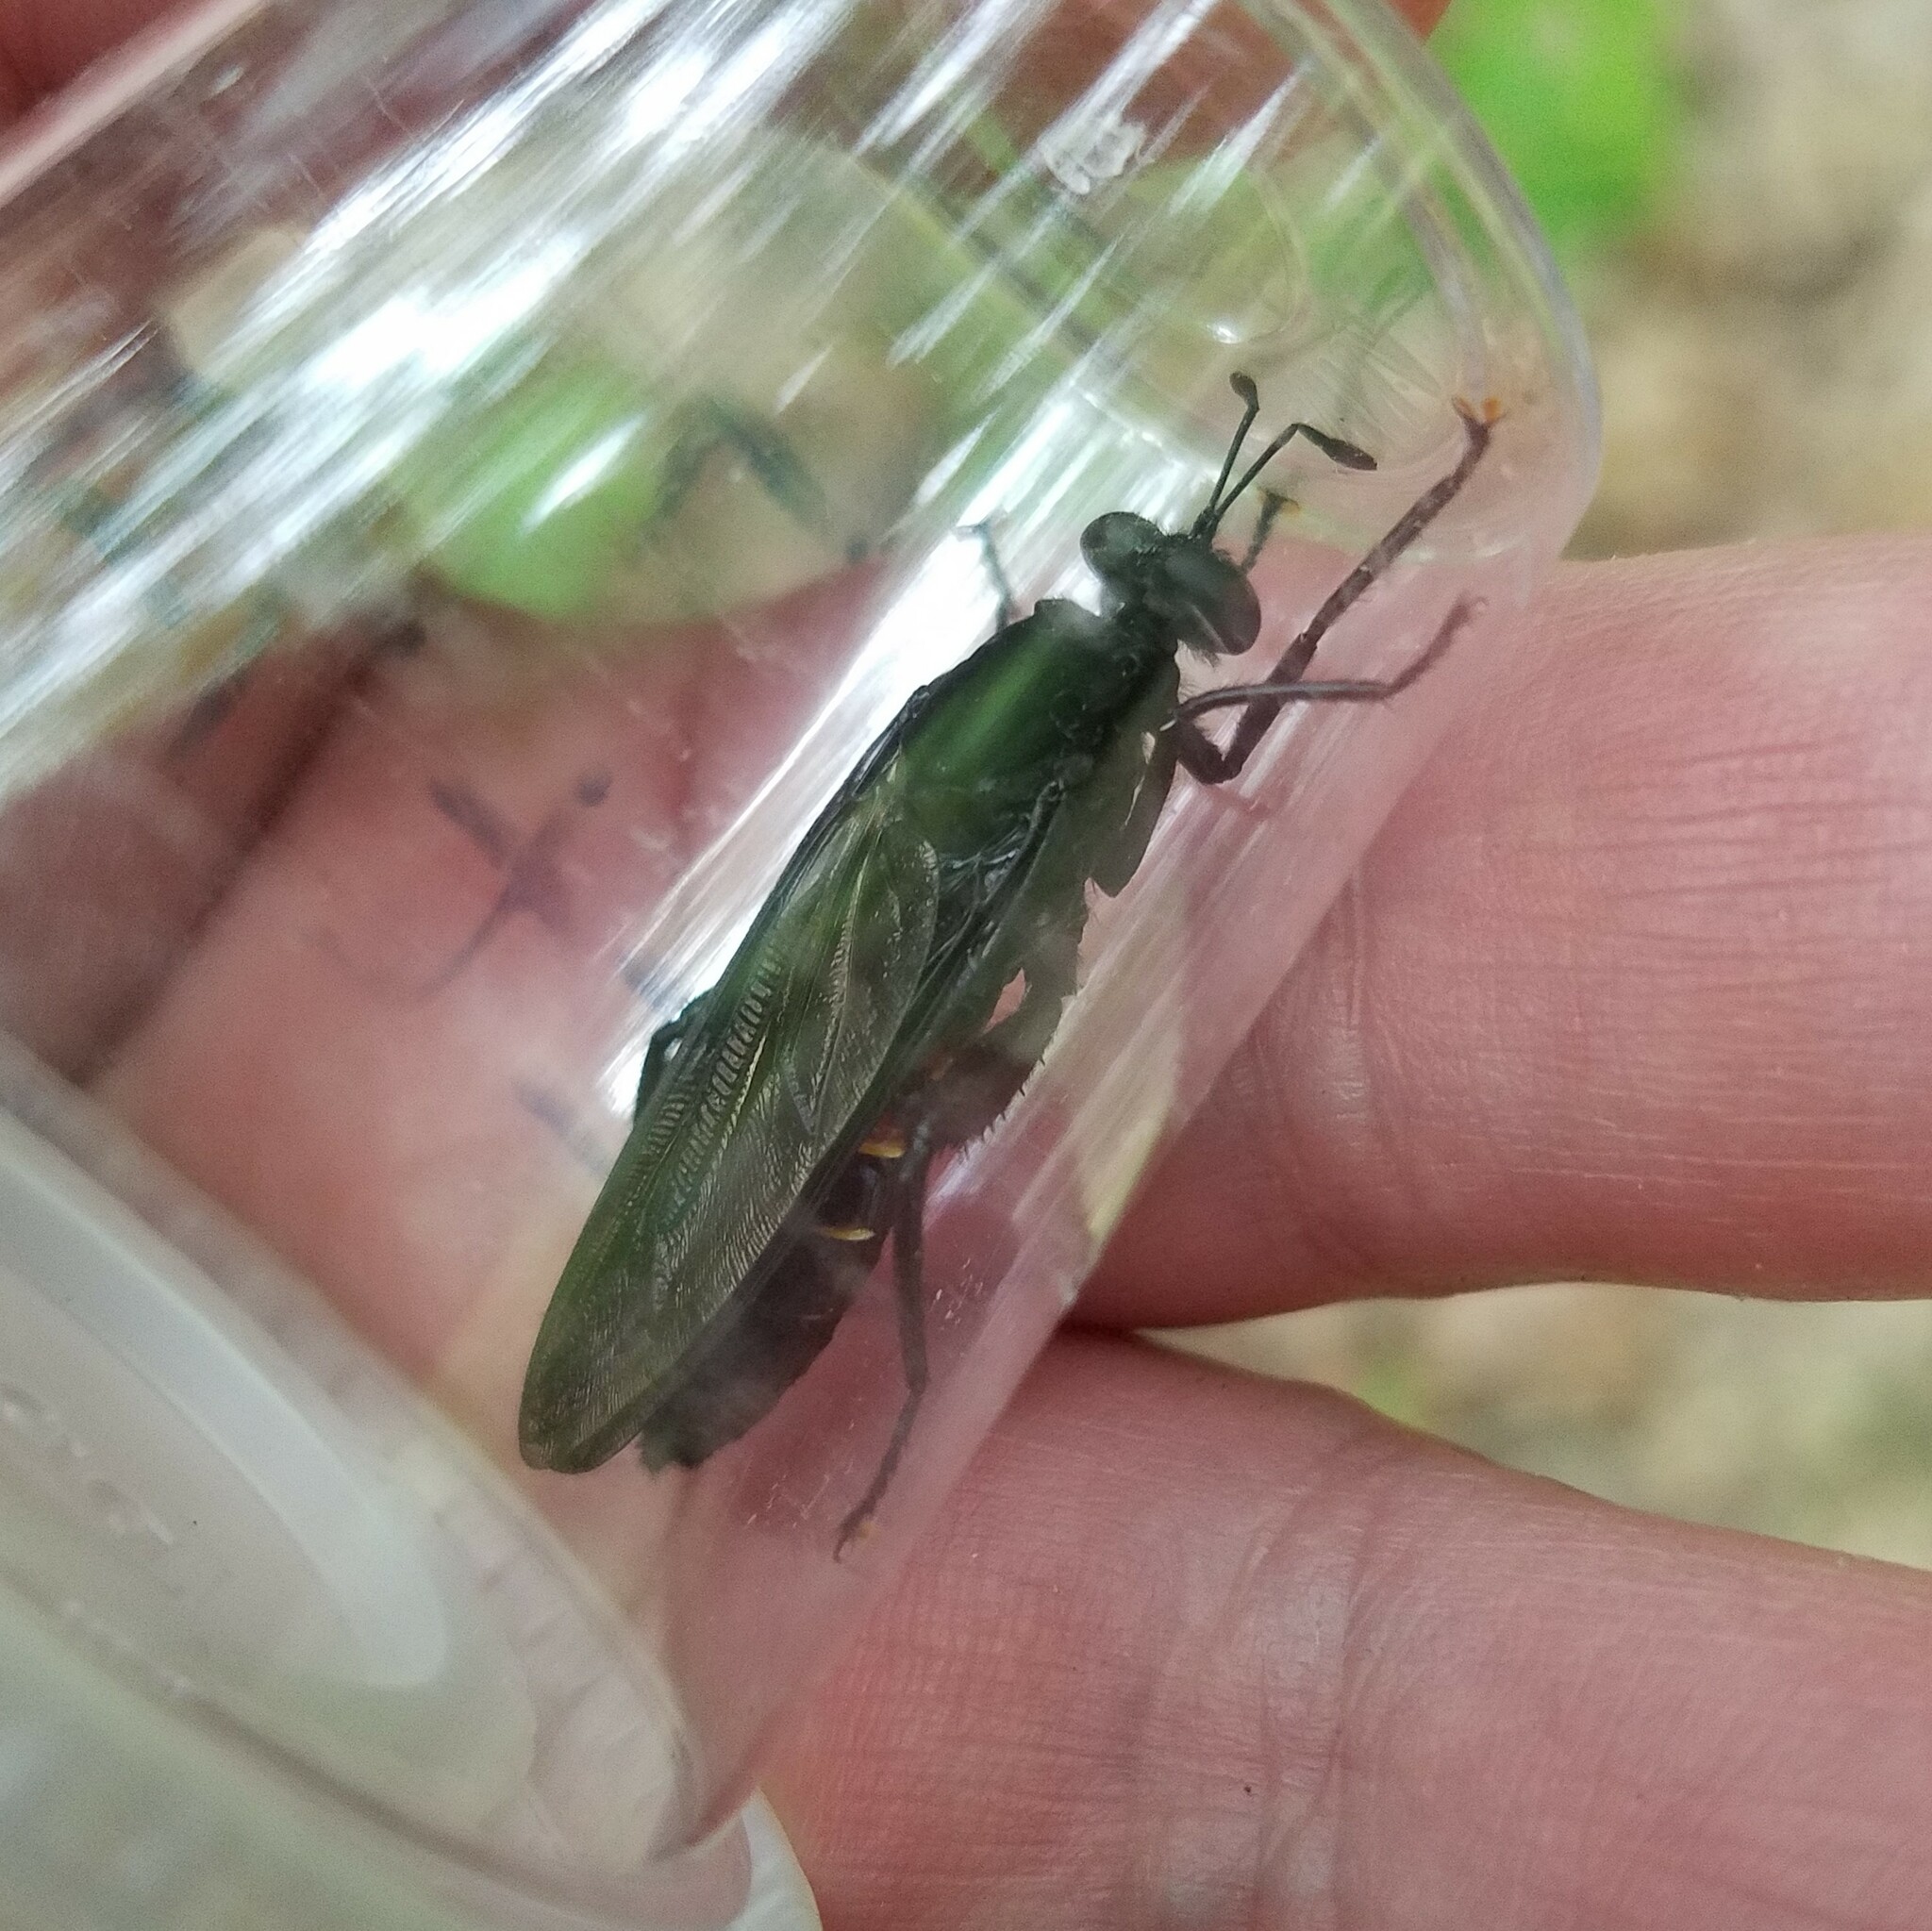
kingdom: Animalia
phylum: Arthropoda
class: Insecta
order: Diptera
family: Mydidae
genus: Mydas
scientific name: Mydas fulvifrons
